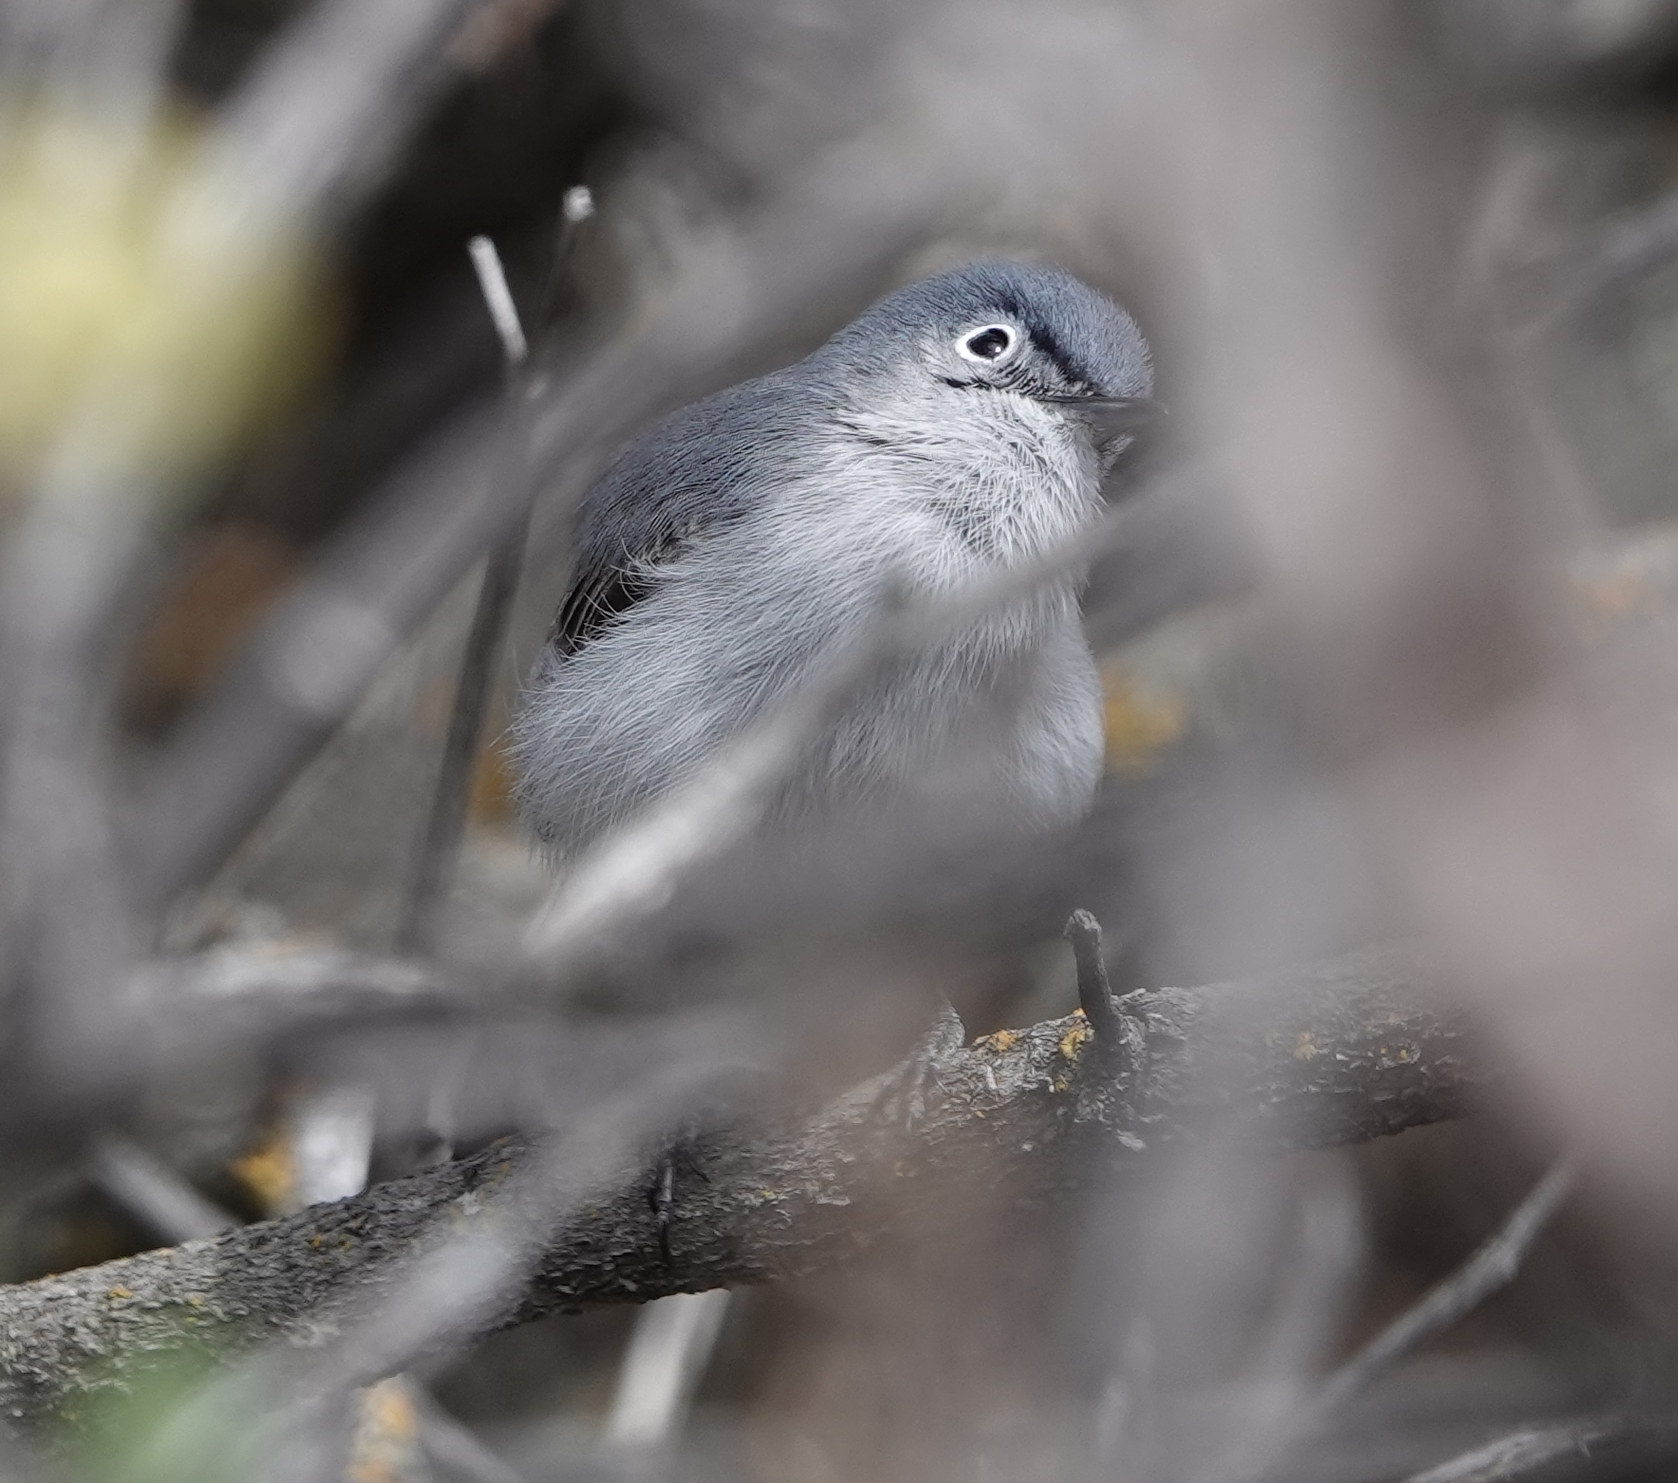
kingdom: Animalia
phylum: Chordata
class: Aves
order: Passeriformes
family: Polioptilidae
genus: Polioptila
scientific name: Polioptila caerulea
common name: Blue-gray gnatcatcher
